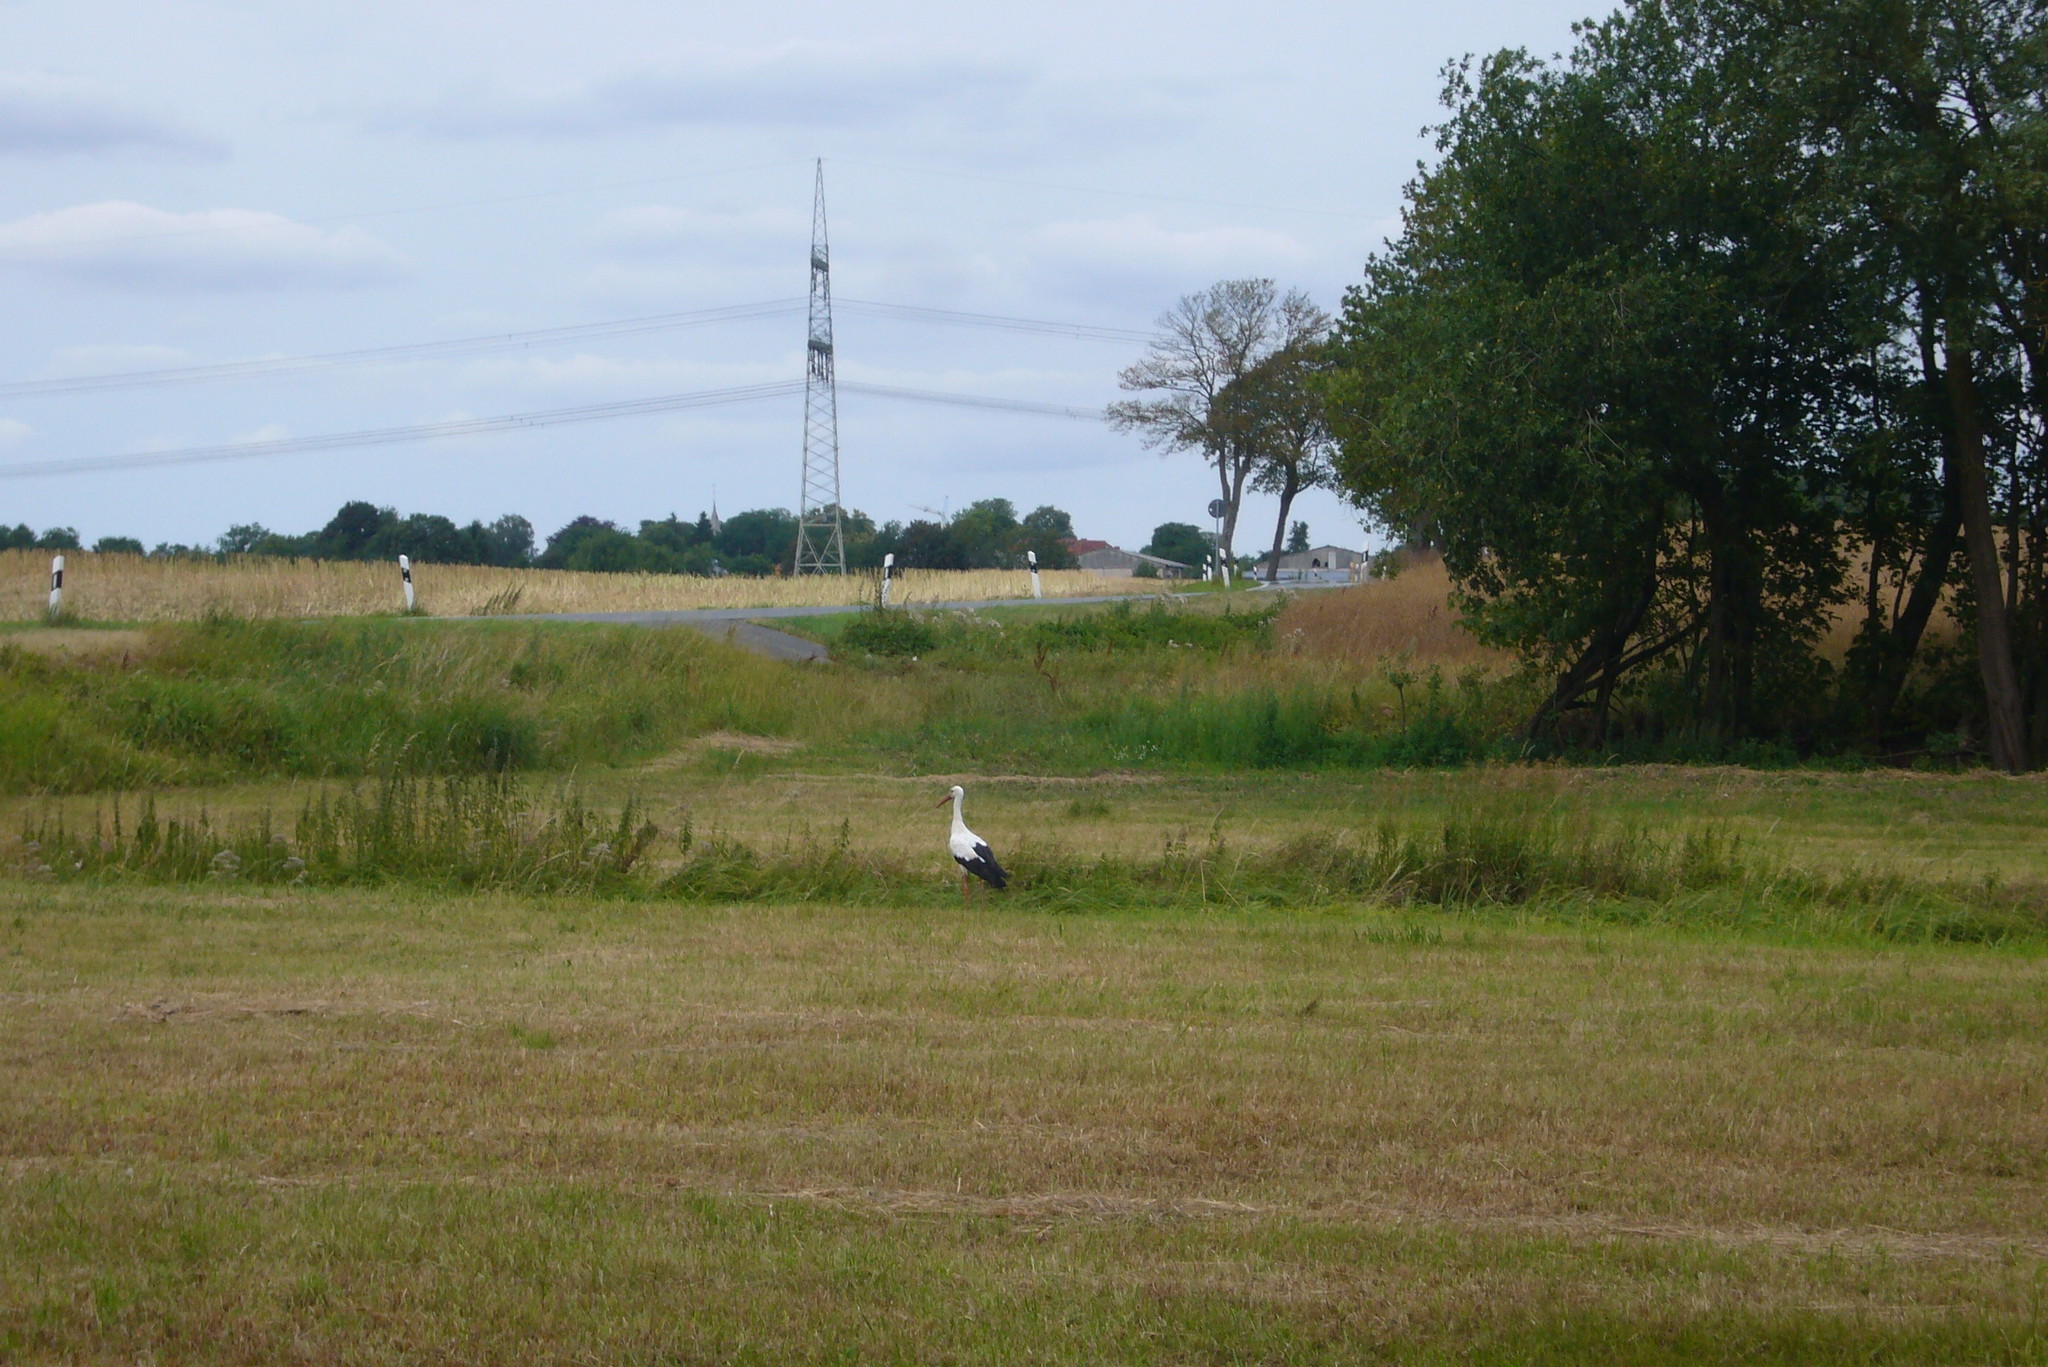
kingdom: Animalia
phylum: Chordata
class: Aves
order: Ciconiiformes
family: Ciconiidae
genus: Ciconia
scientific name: Ciconia ciconia
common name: White stork
